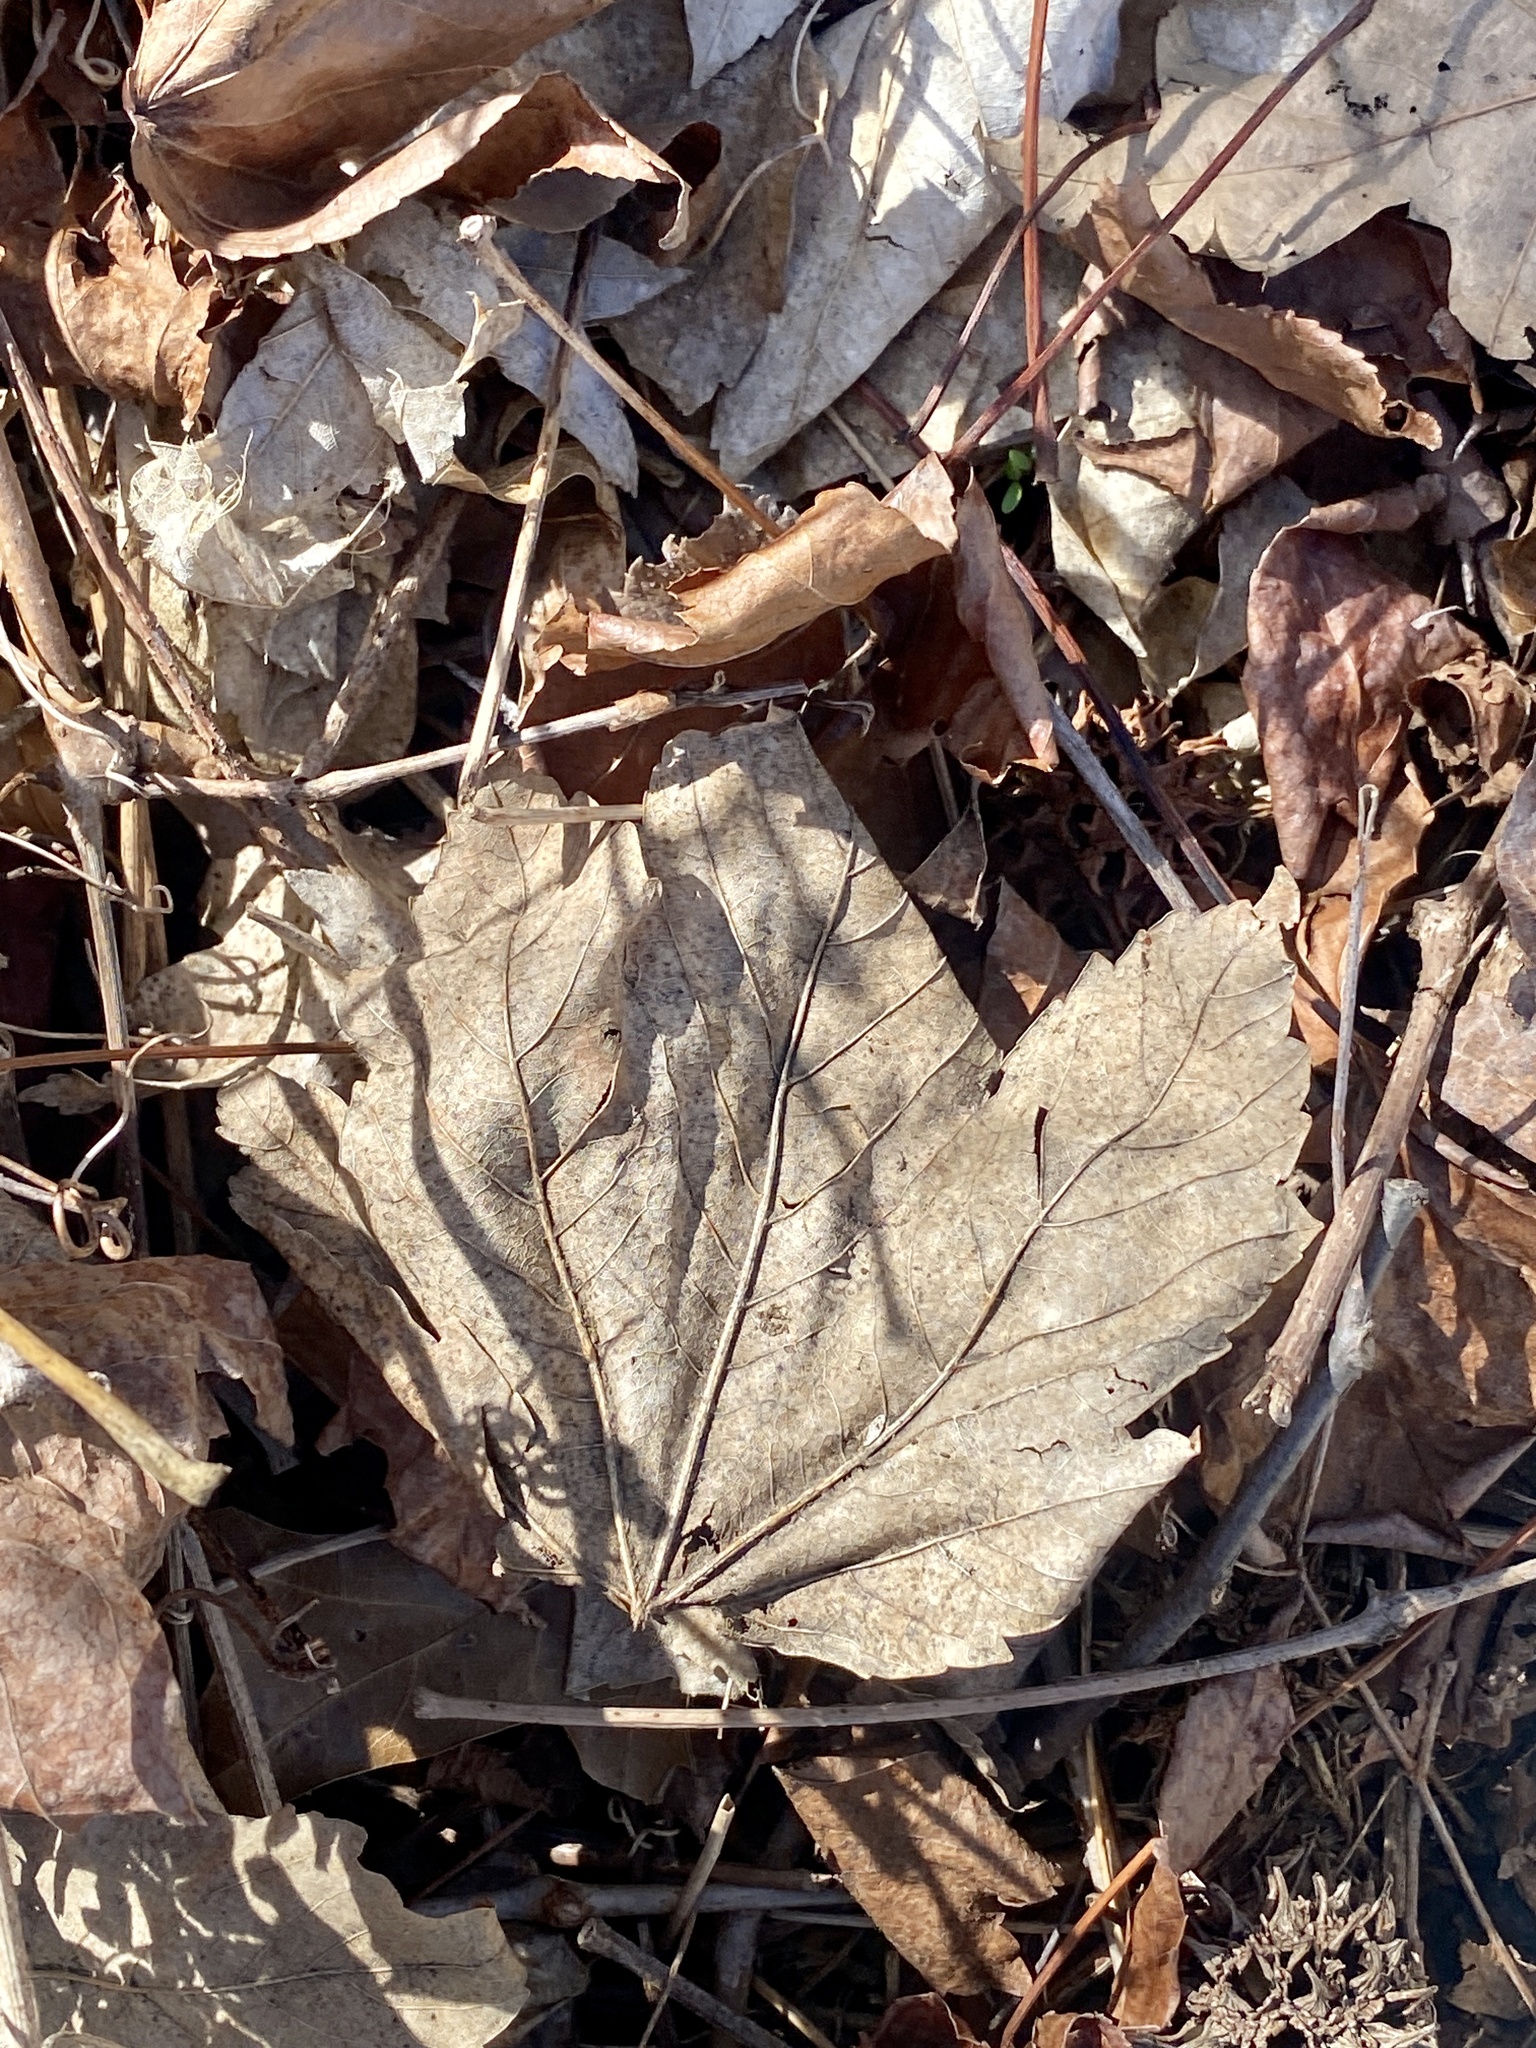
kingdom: Plantae
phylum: Tracheophyta
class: Magnoliopsida
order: Sapindales
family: Sapindaceae
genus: Acer
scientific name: Acer pseudoplatanus
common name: Sycamore
